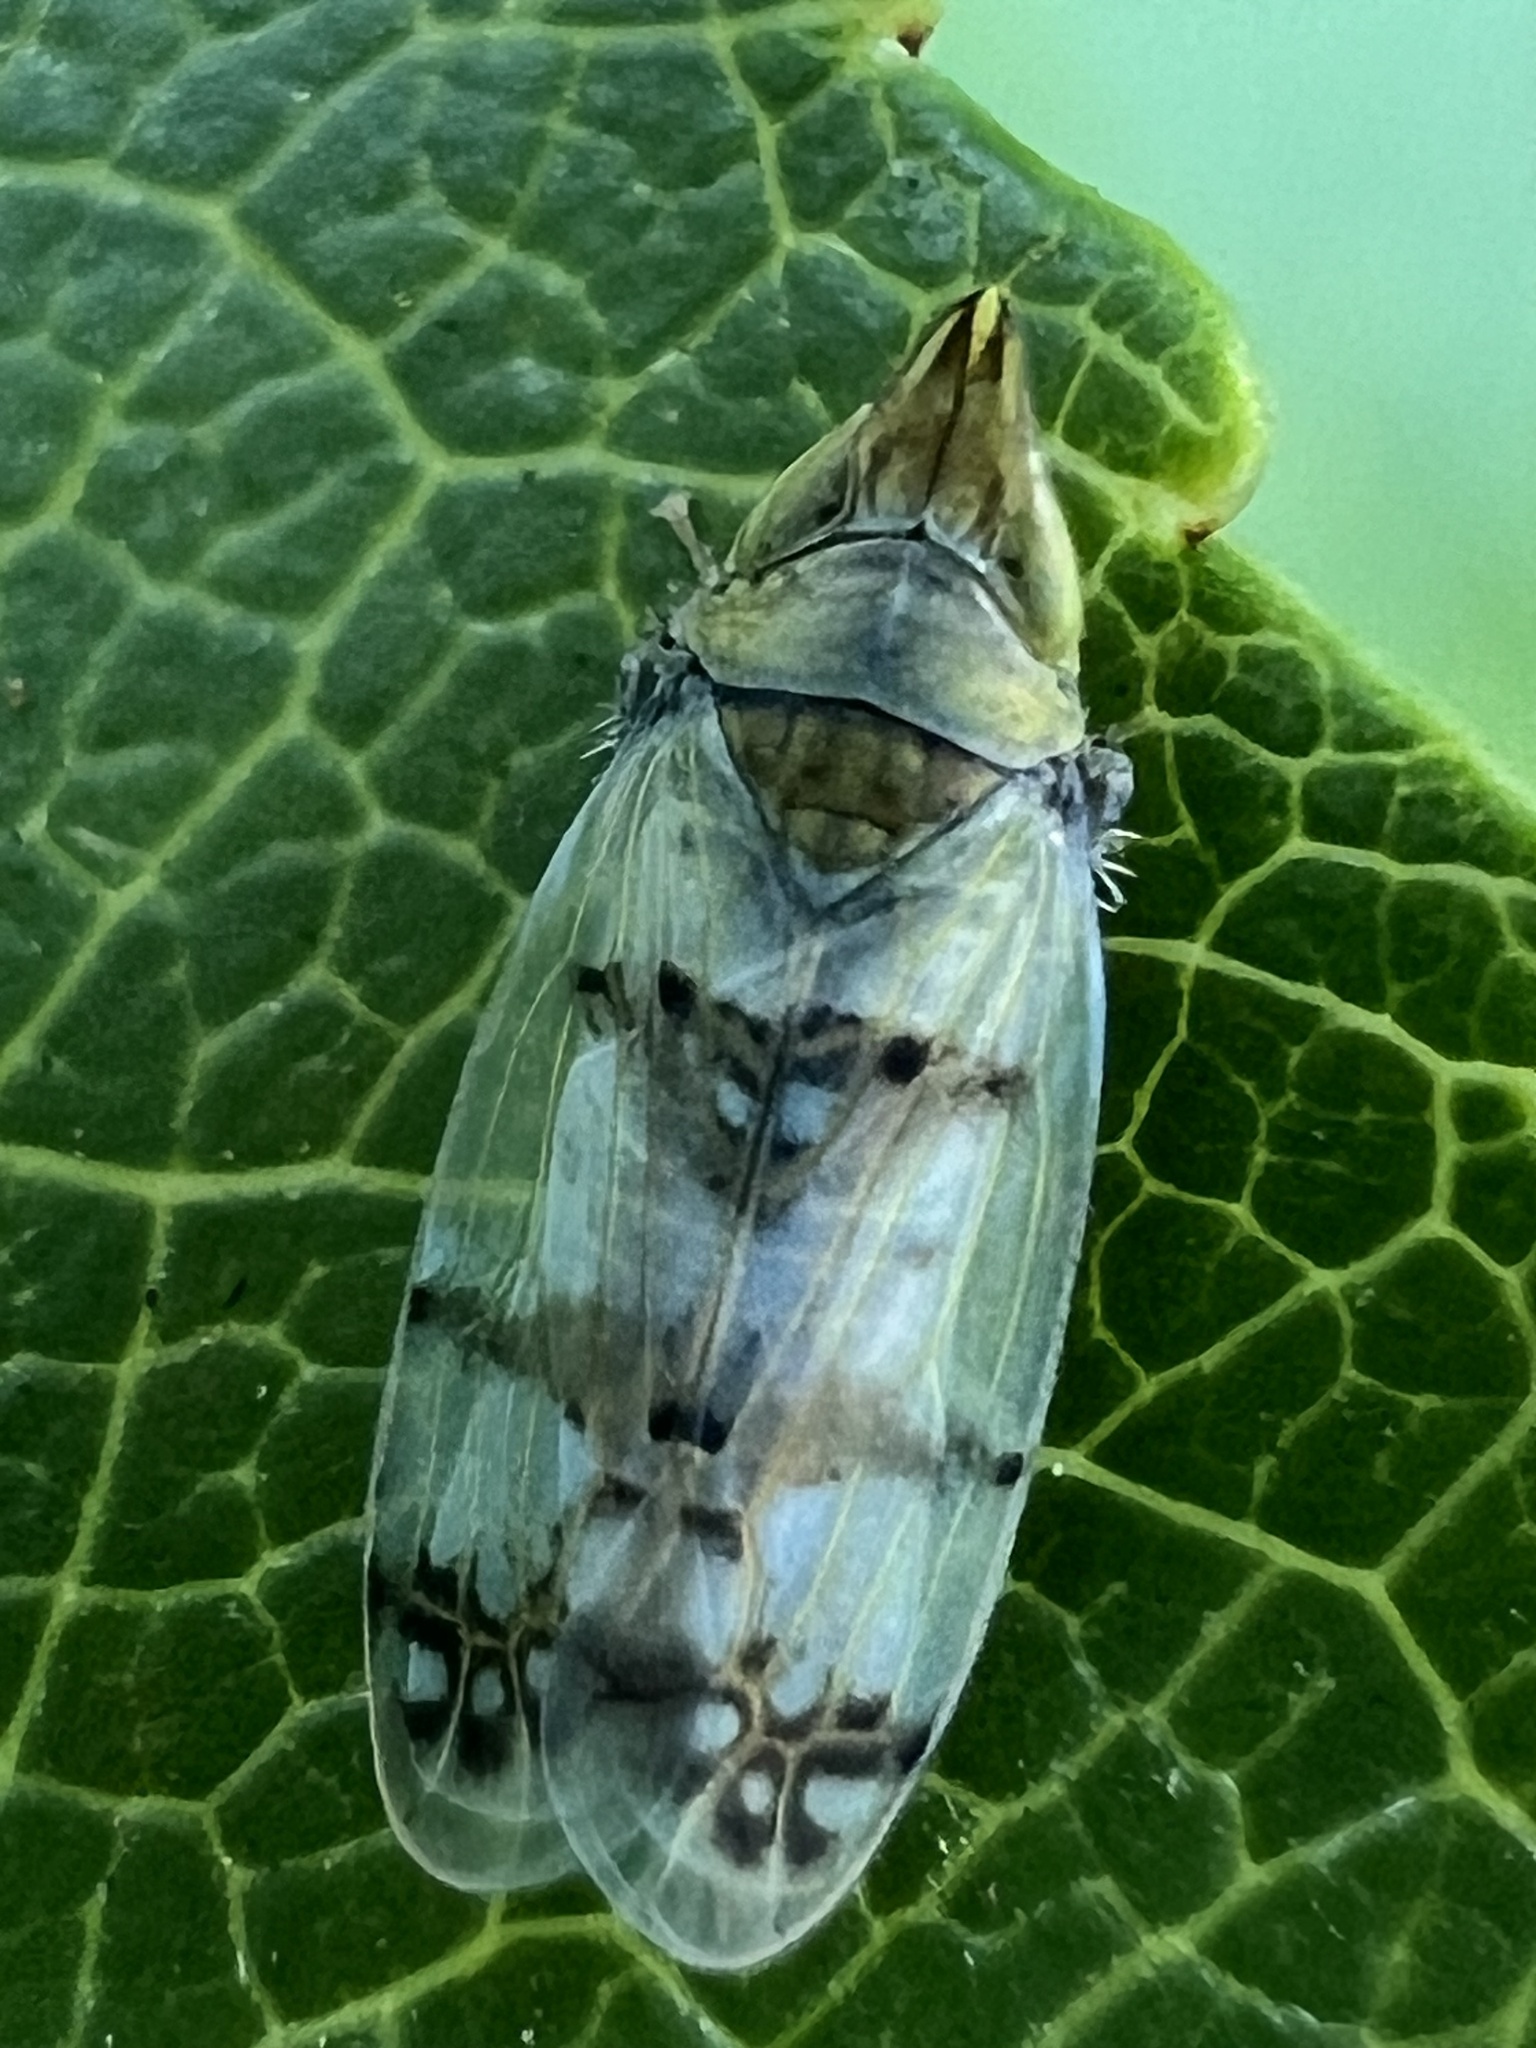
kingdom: Animalia
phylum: Arthropoda
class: Insecta
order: Hemiptera
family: Cicadellidae
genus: Japananus
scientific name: Japananus hyalinus
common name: The japanese maple leafhopper
